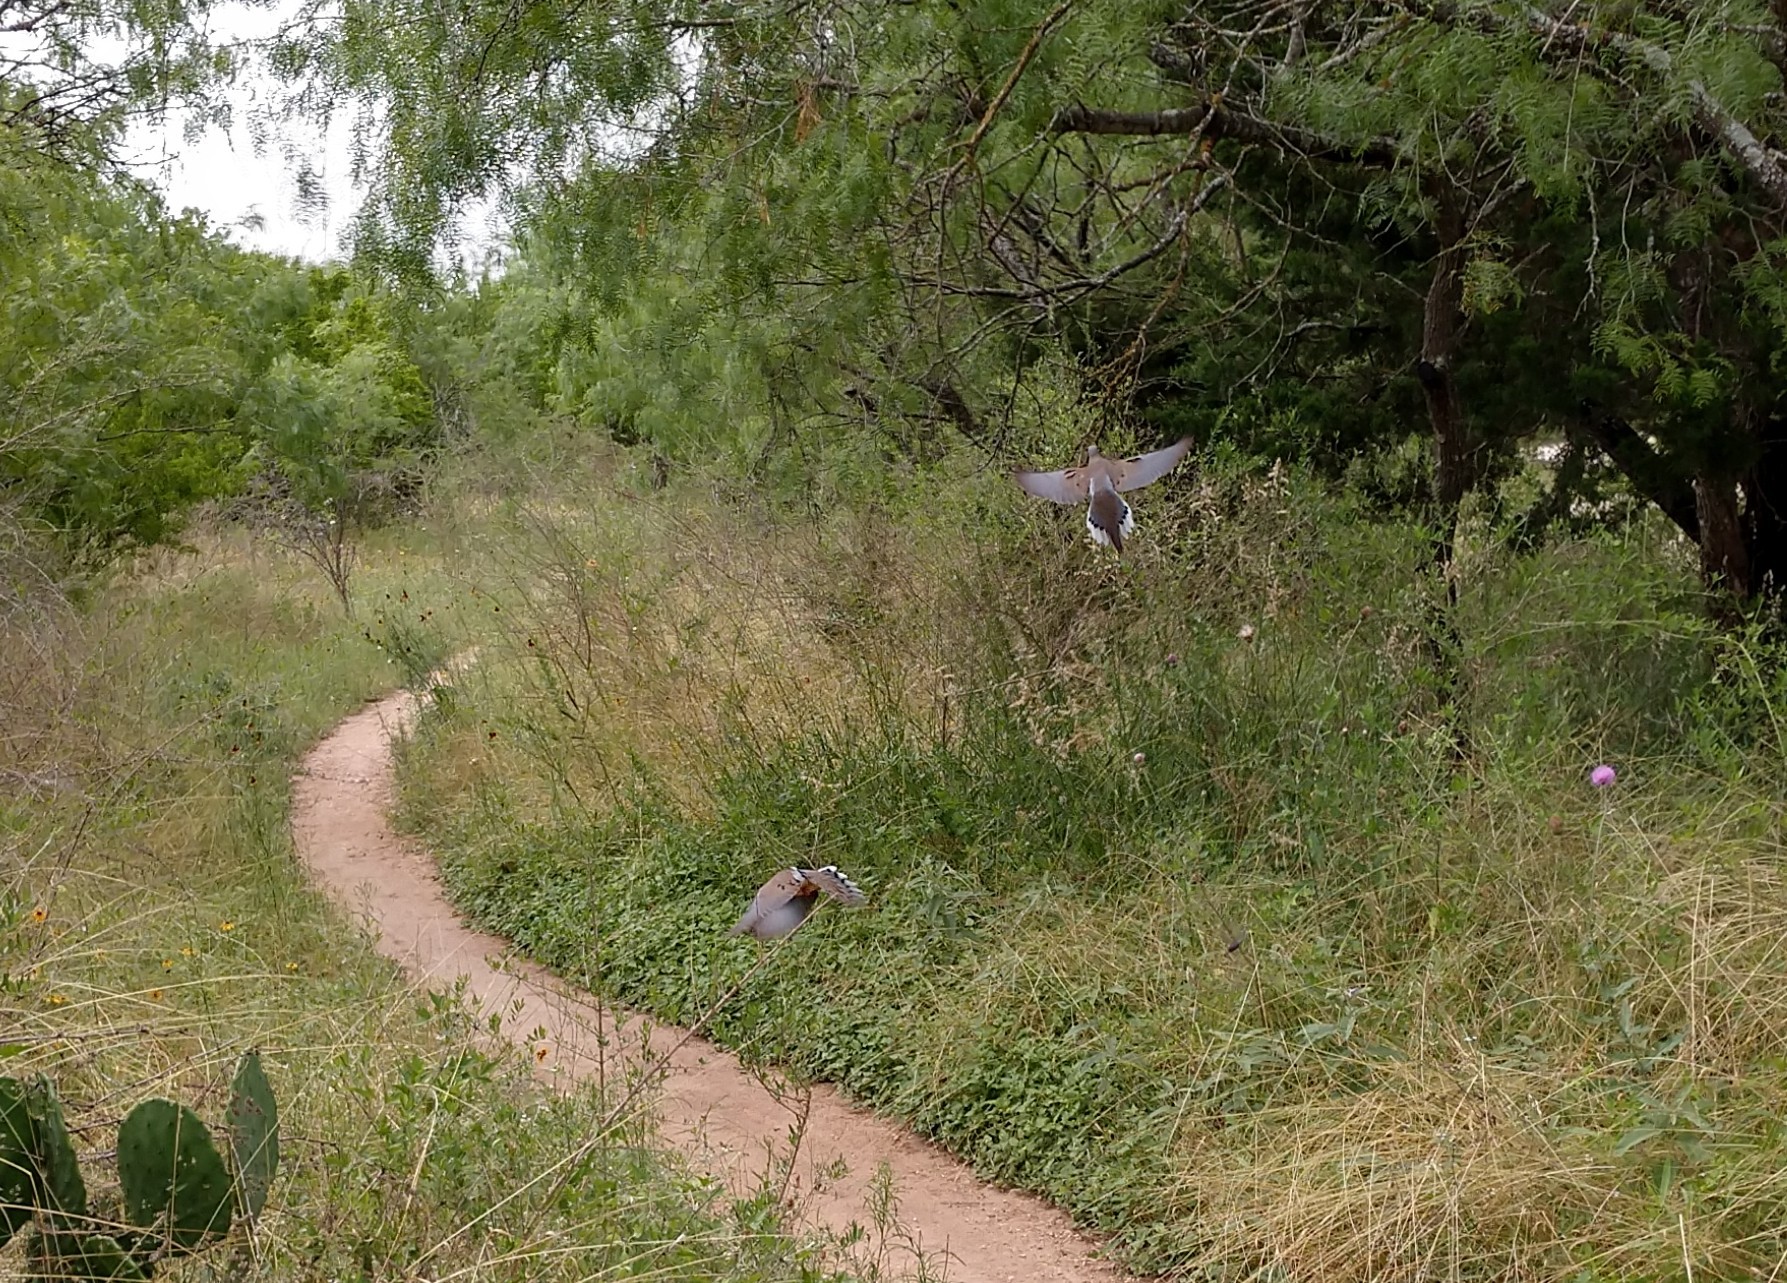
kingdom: Animalia
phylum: Chordata
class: Aves
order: Columbiformes
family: Columbidae
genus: Zenaida
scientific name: Zenaida macroura
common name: Mourning dove
